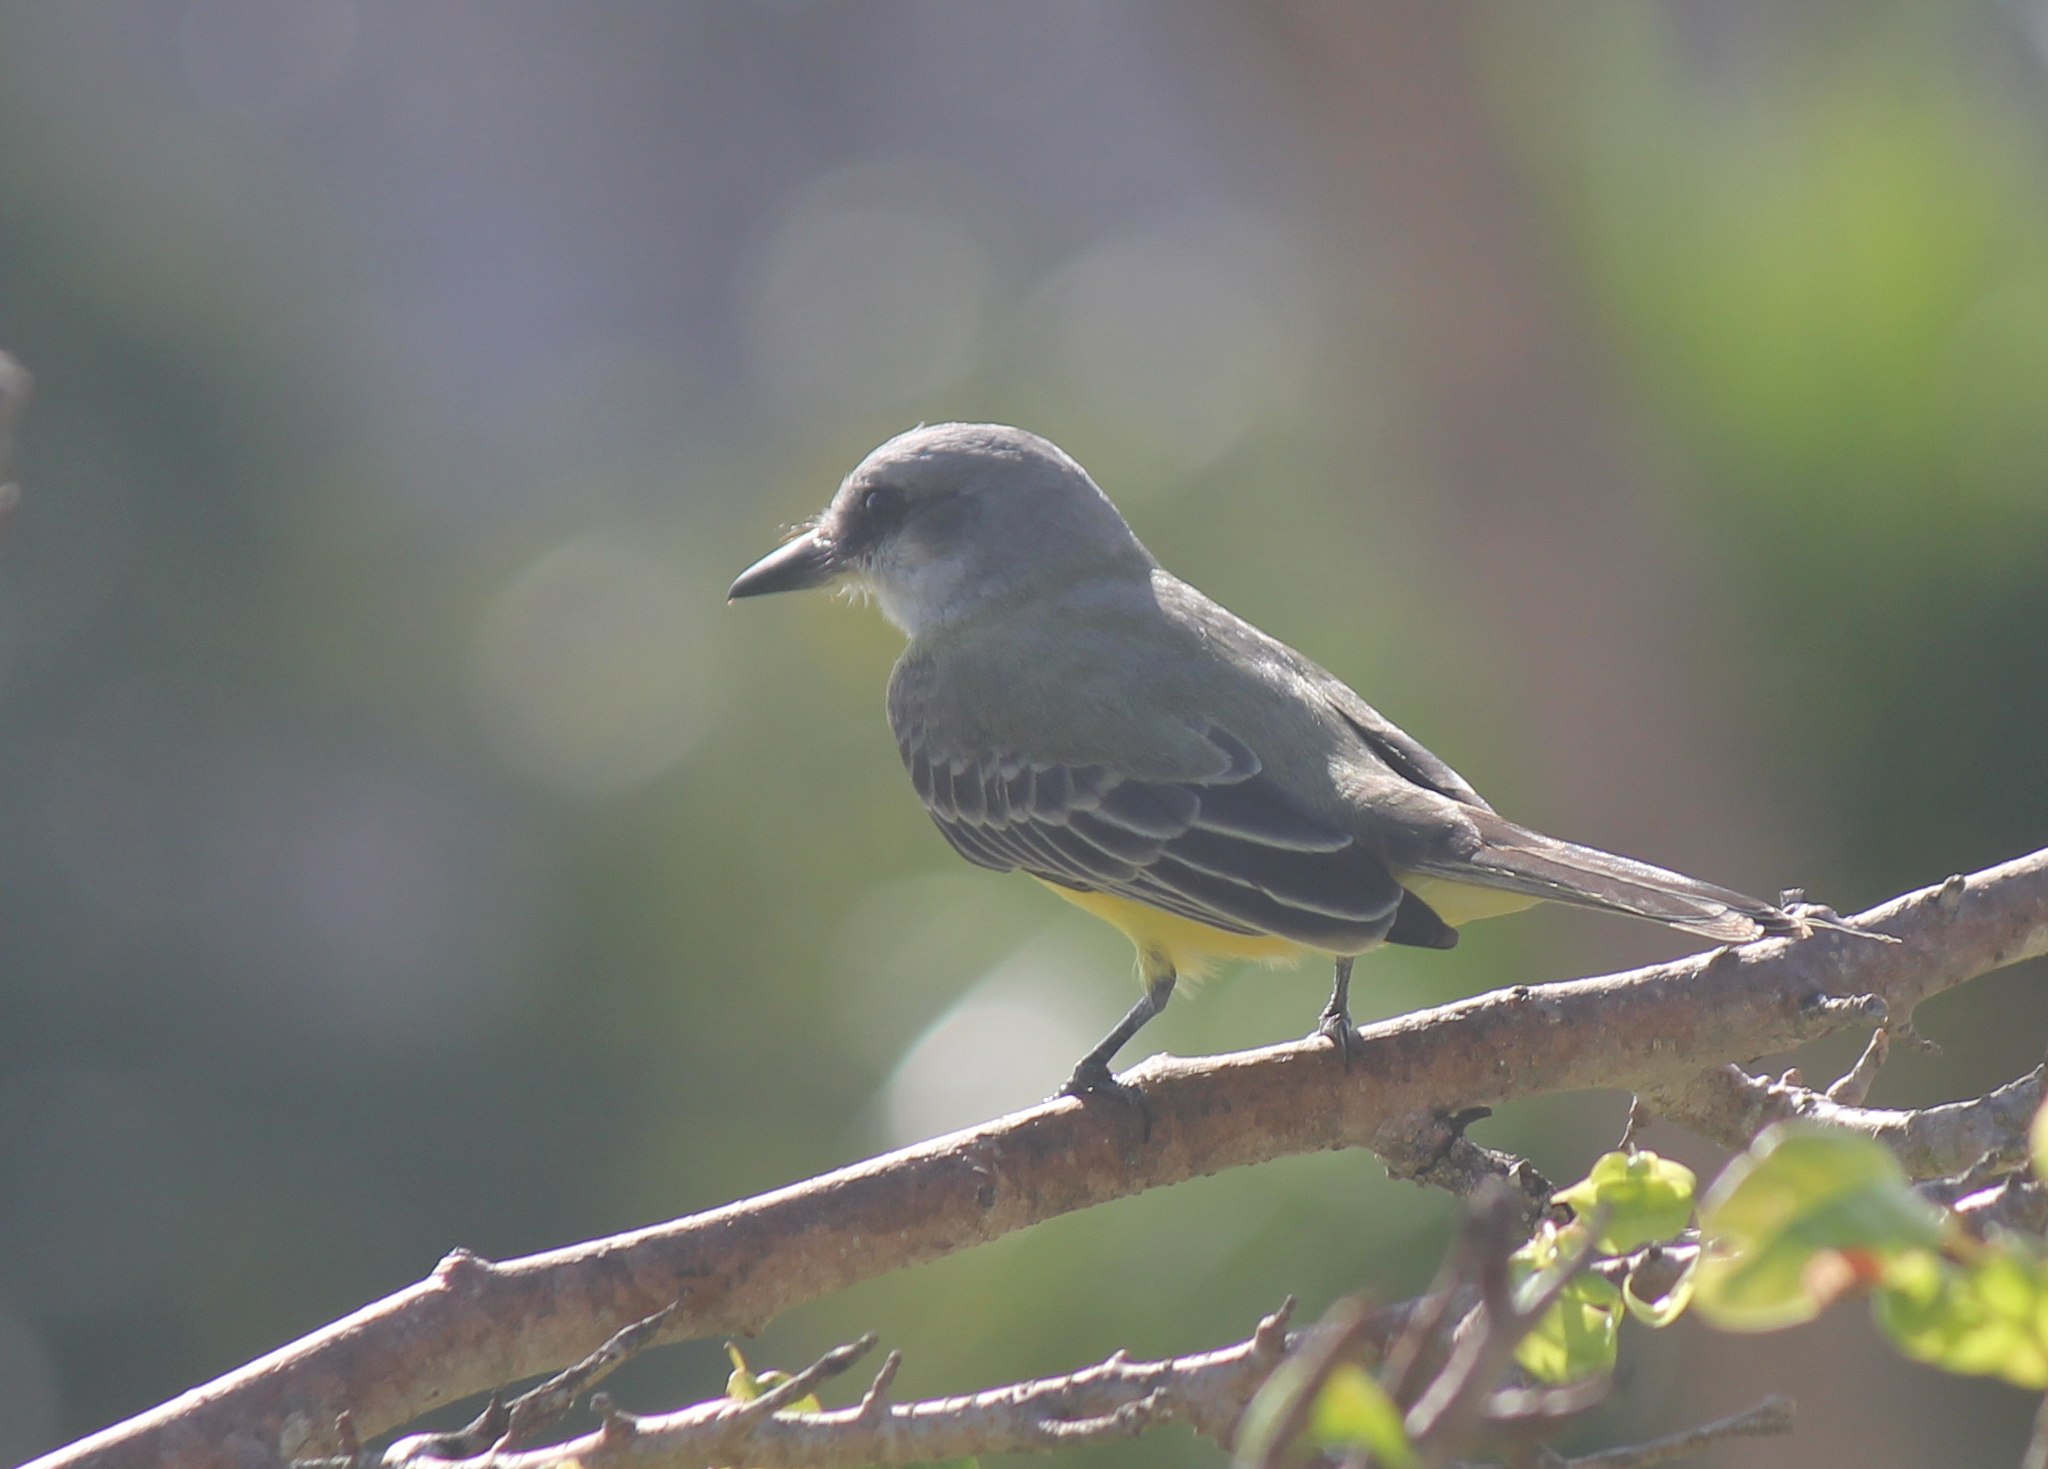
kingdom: Animalia
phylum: Chordata
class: Aves
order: Passeriformes
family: Tyrannidae
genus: Tyrannus
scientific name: Tyrannus melancholicus
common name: Tropical kingbird
